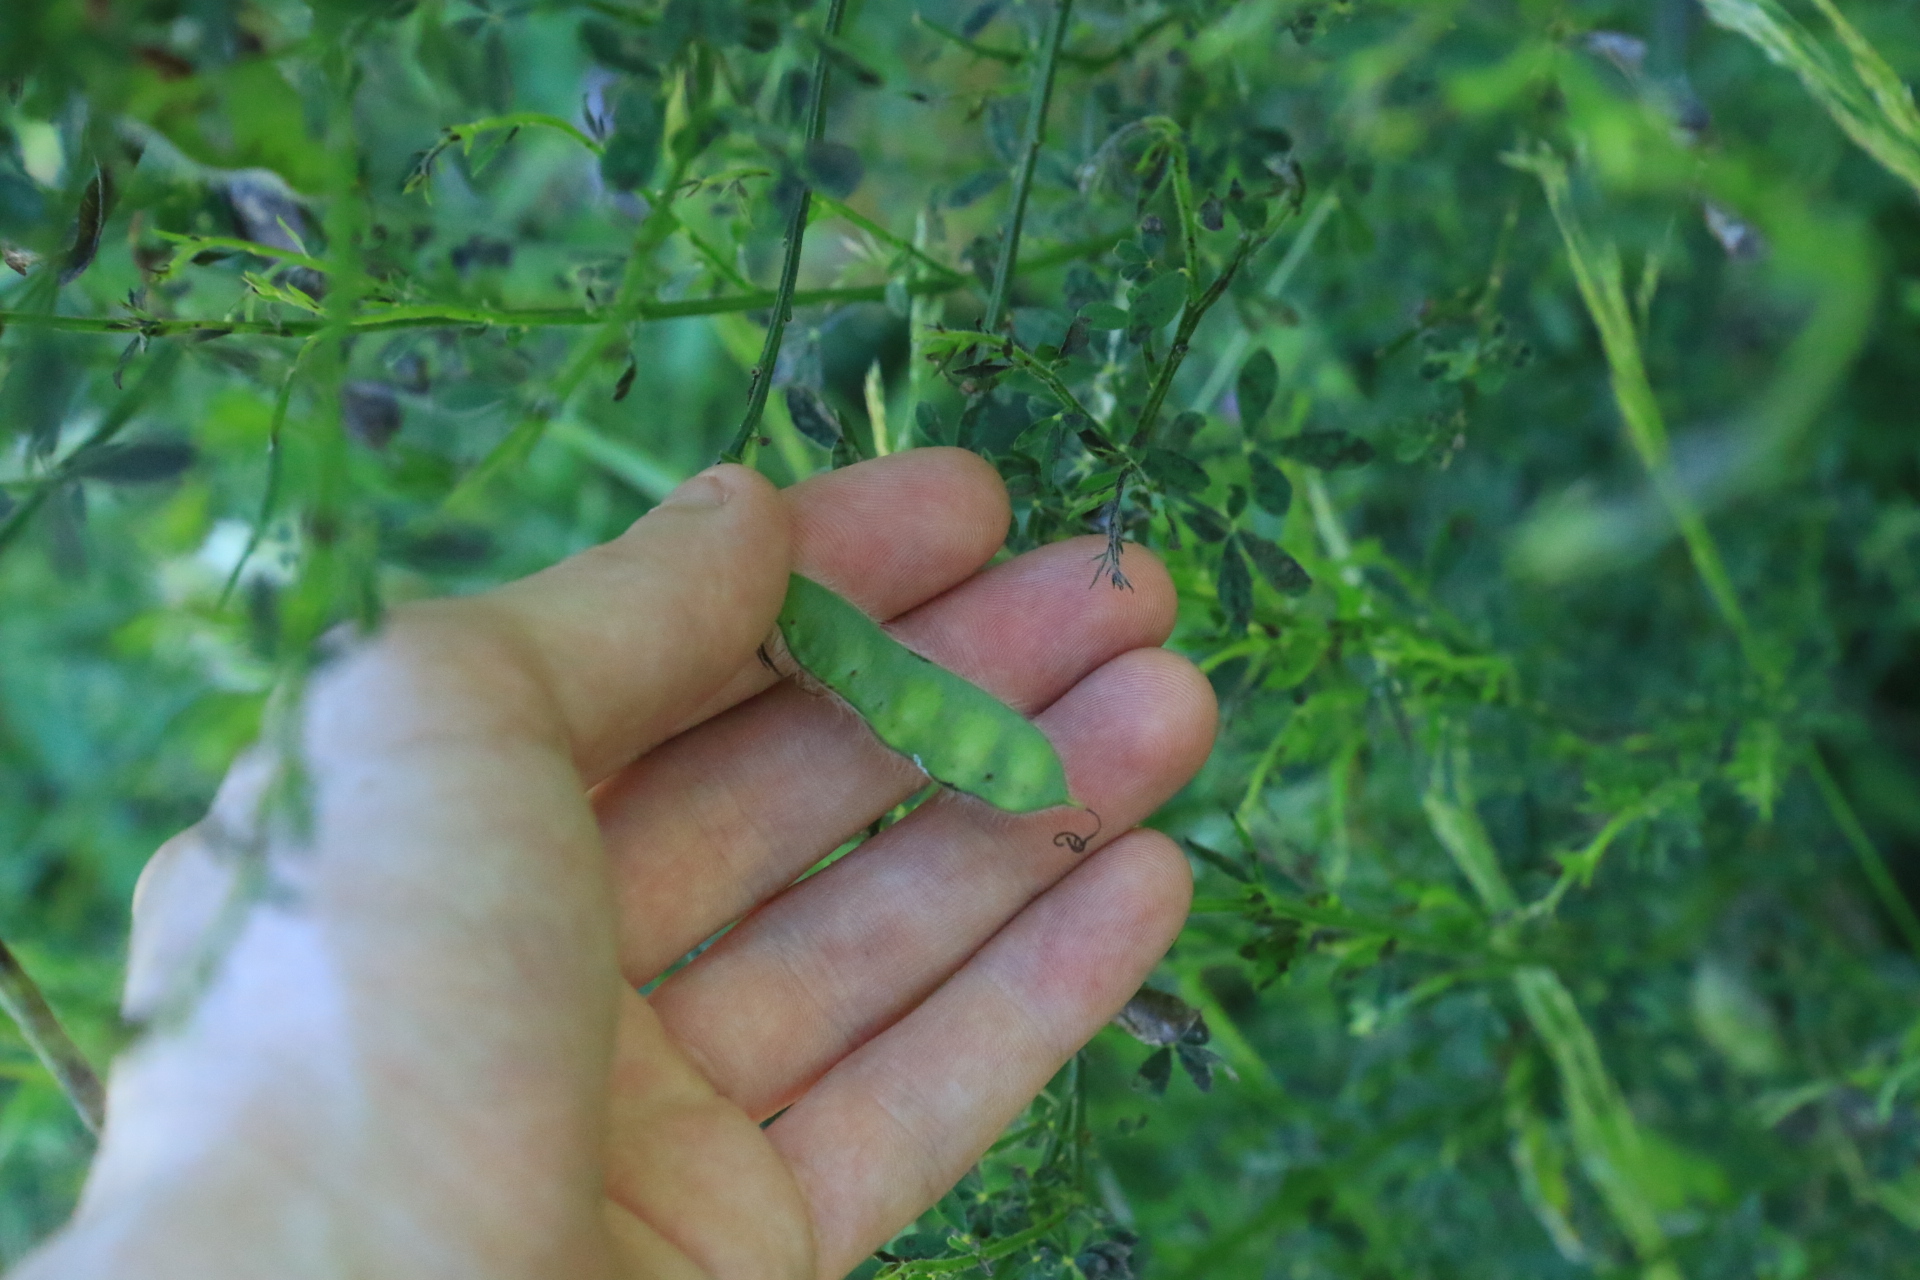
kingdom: Plantae
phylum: Tracheophyta
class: Magnoliopsida
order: Fabales
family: Fabaceae
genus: Cytisus
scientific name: Cytisus scoparius
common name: Scotch broom
